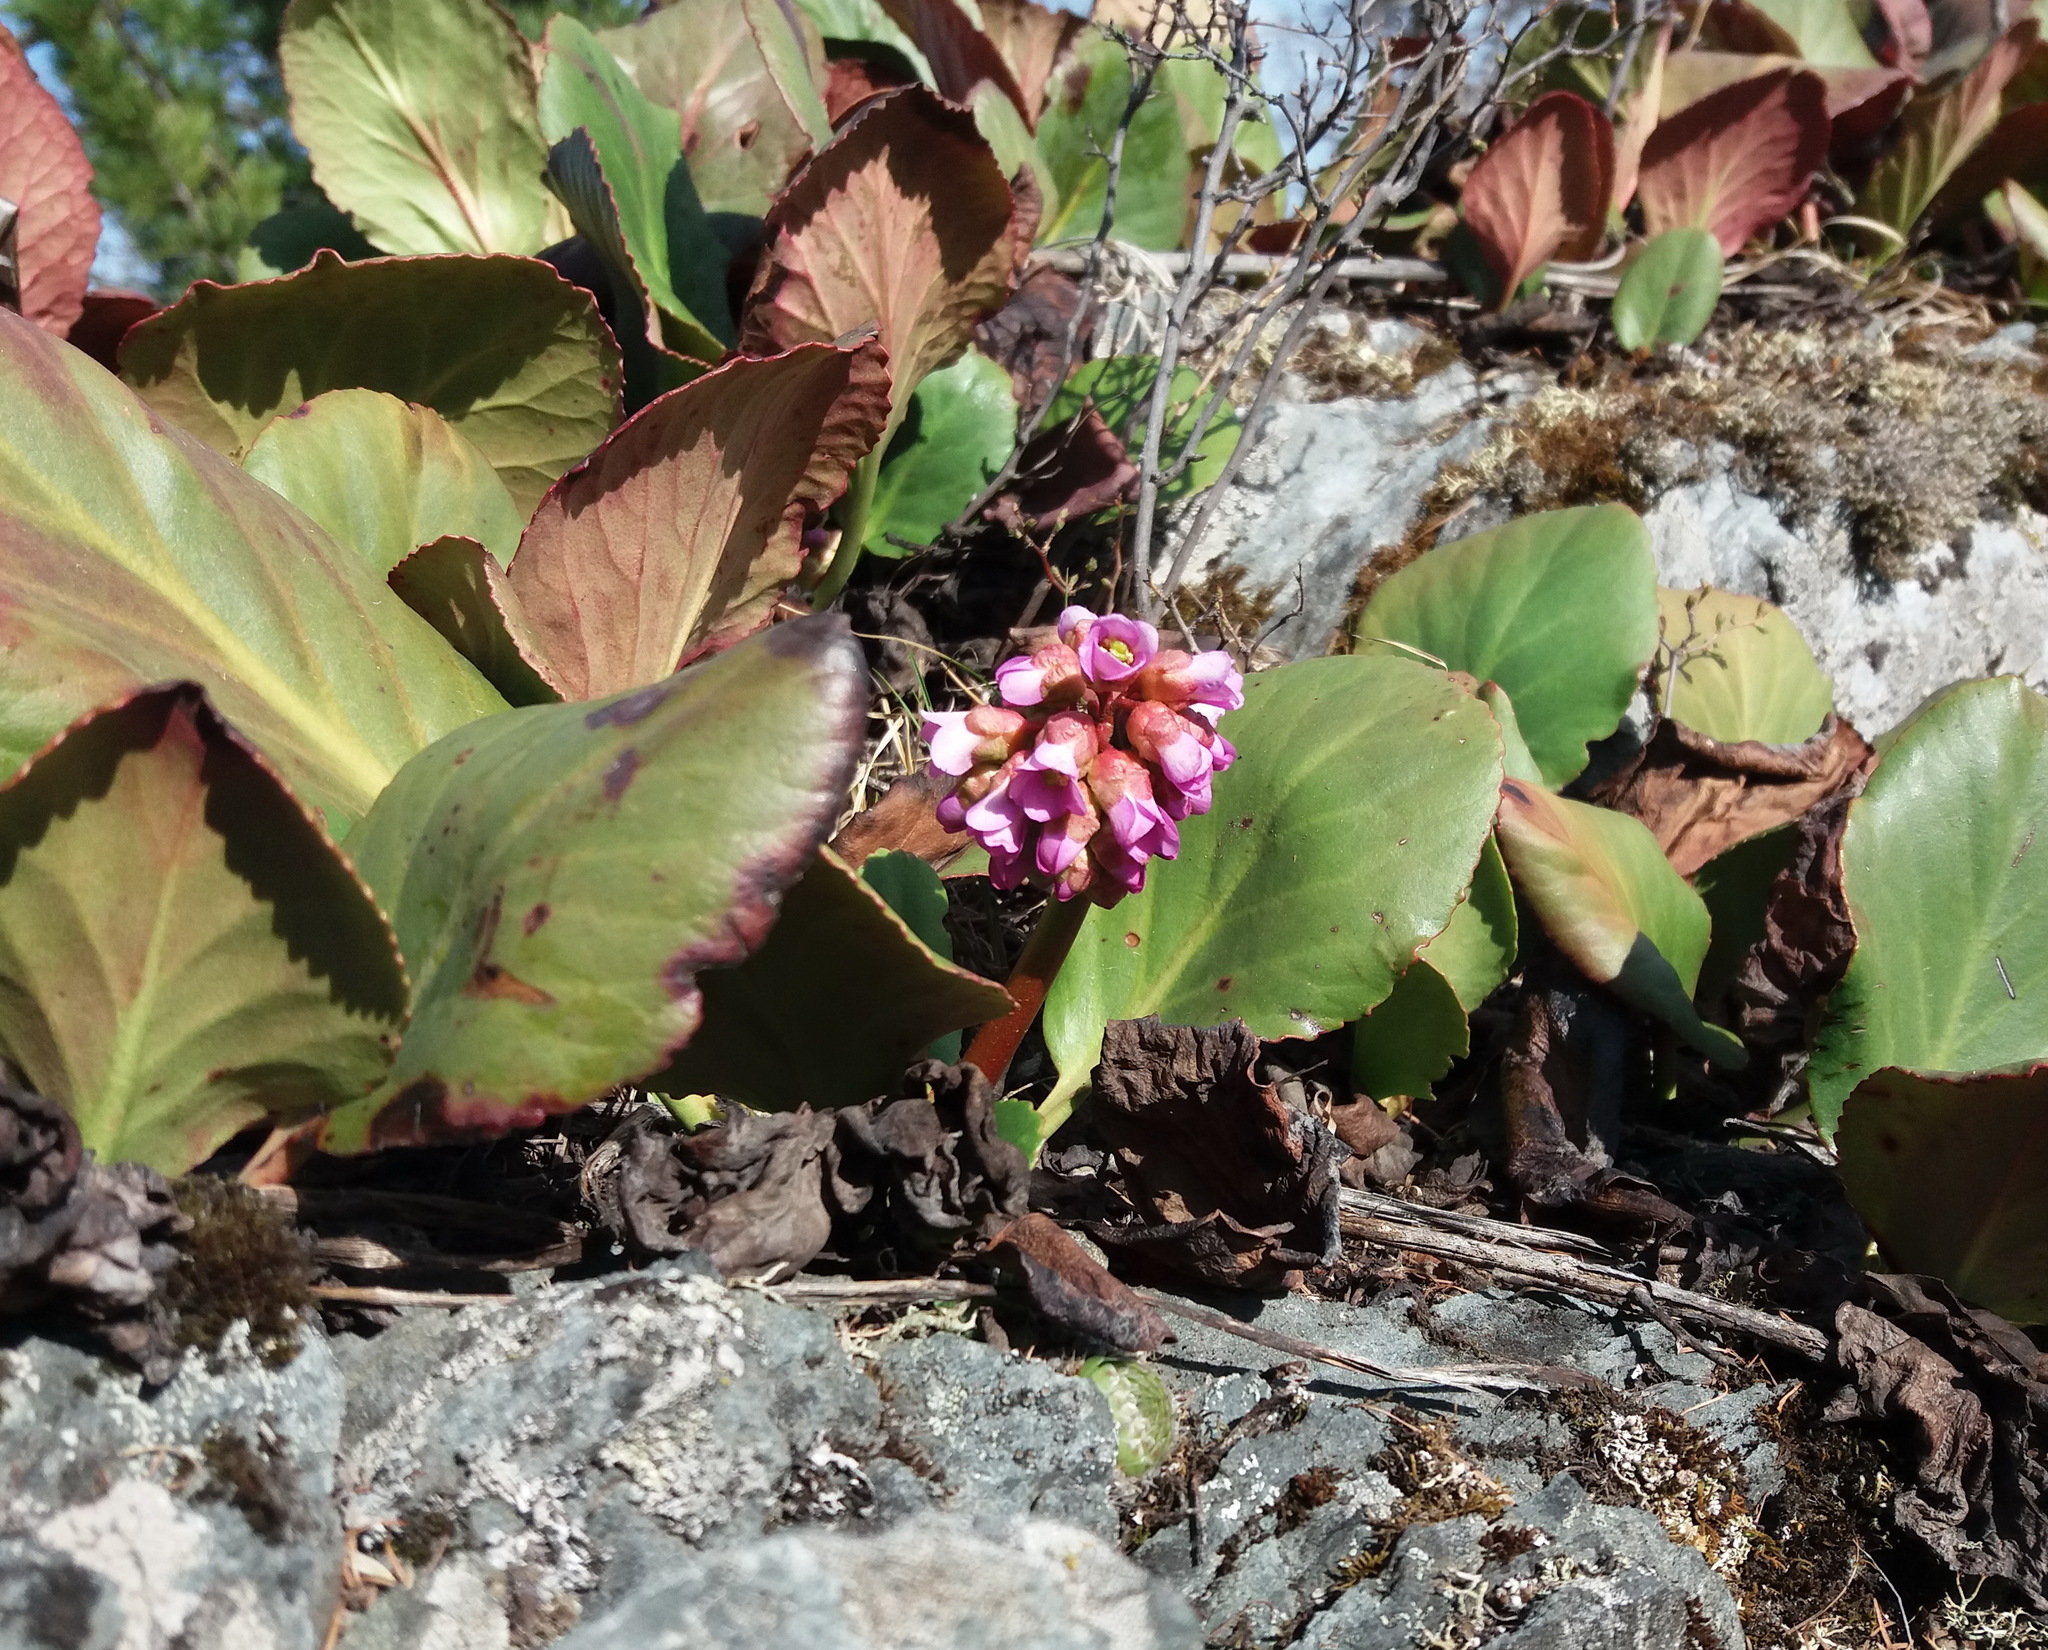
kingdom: Plantae
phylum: Tracheophyta
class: Magnoliopsida
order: Saxifragales
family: Saxifragaceae
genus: Bergenia
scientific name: Bergenia crassifolia
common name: Elephant-ears
